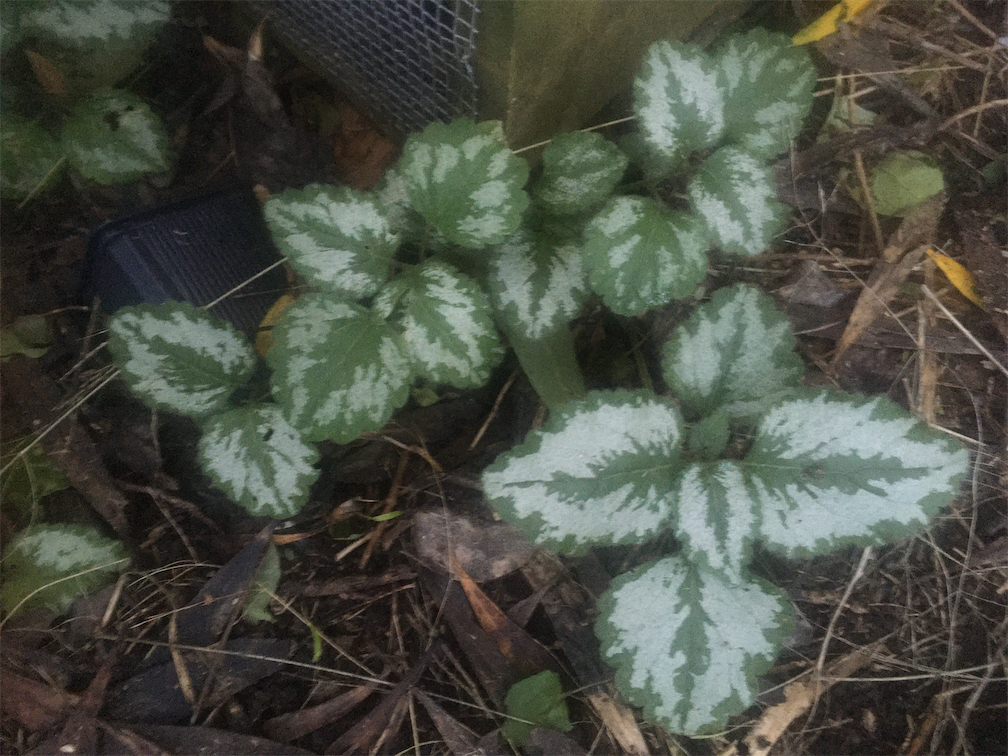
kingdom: Plantae
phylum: Tracheophyta
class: Magnoliopsida
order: Lamiales
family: Lamiaceae
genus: Lamium
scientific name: Lamium galeobdolon
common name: Yellow archangel
